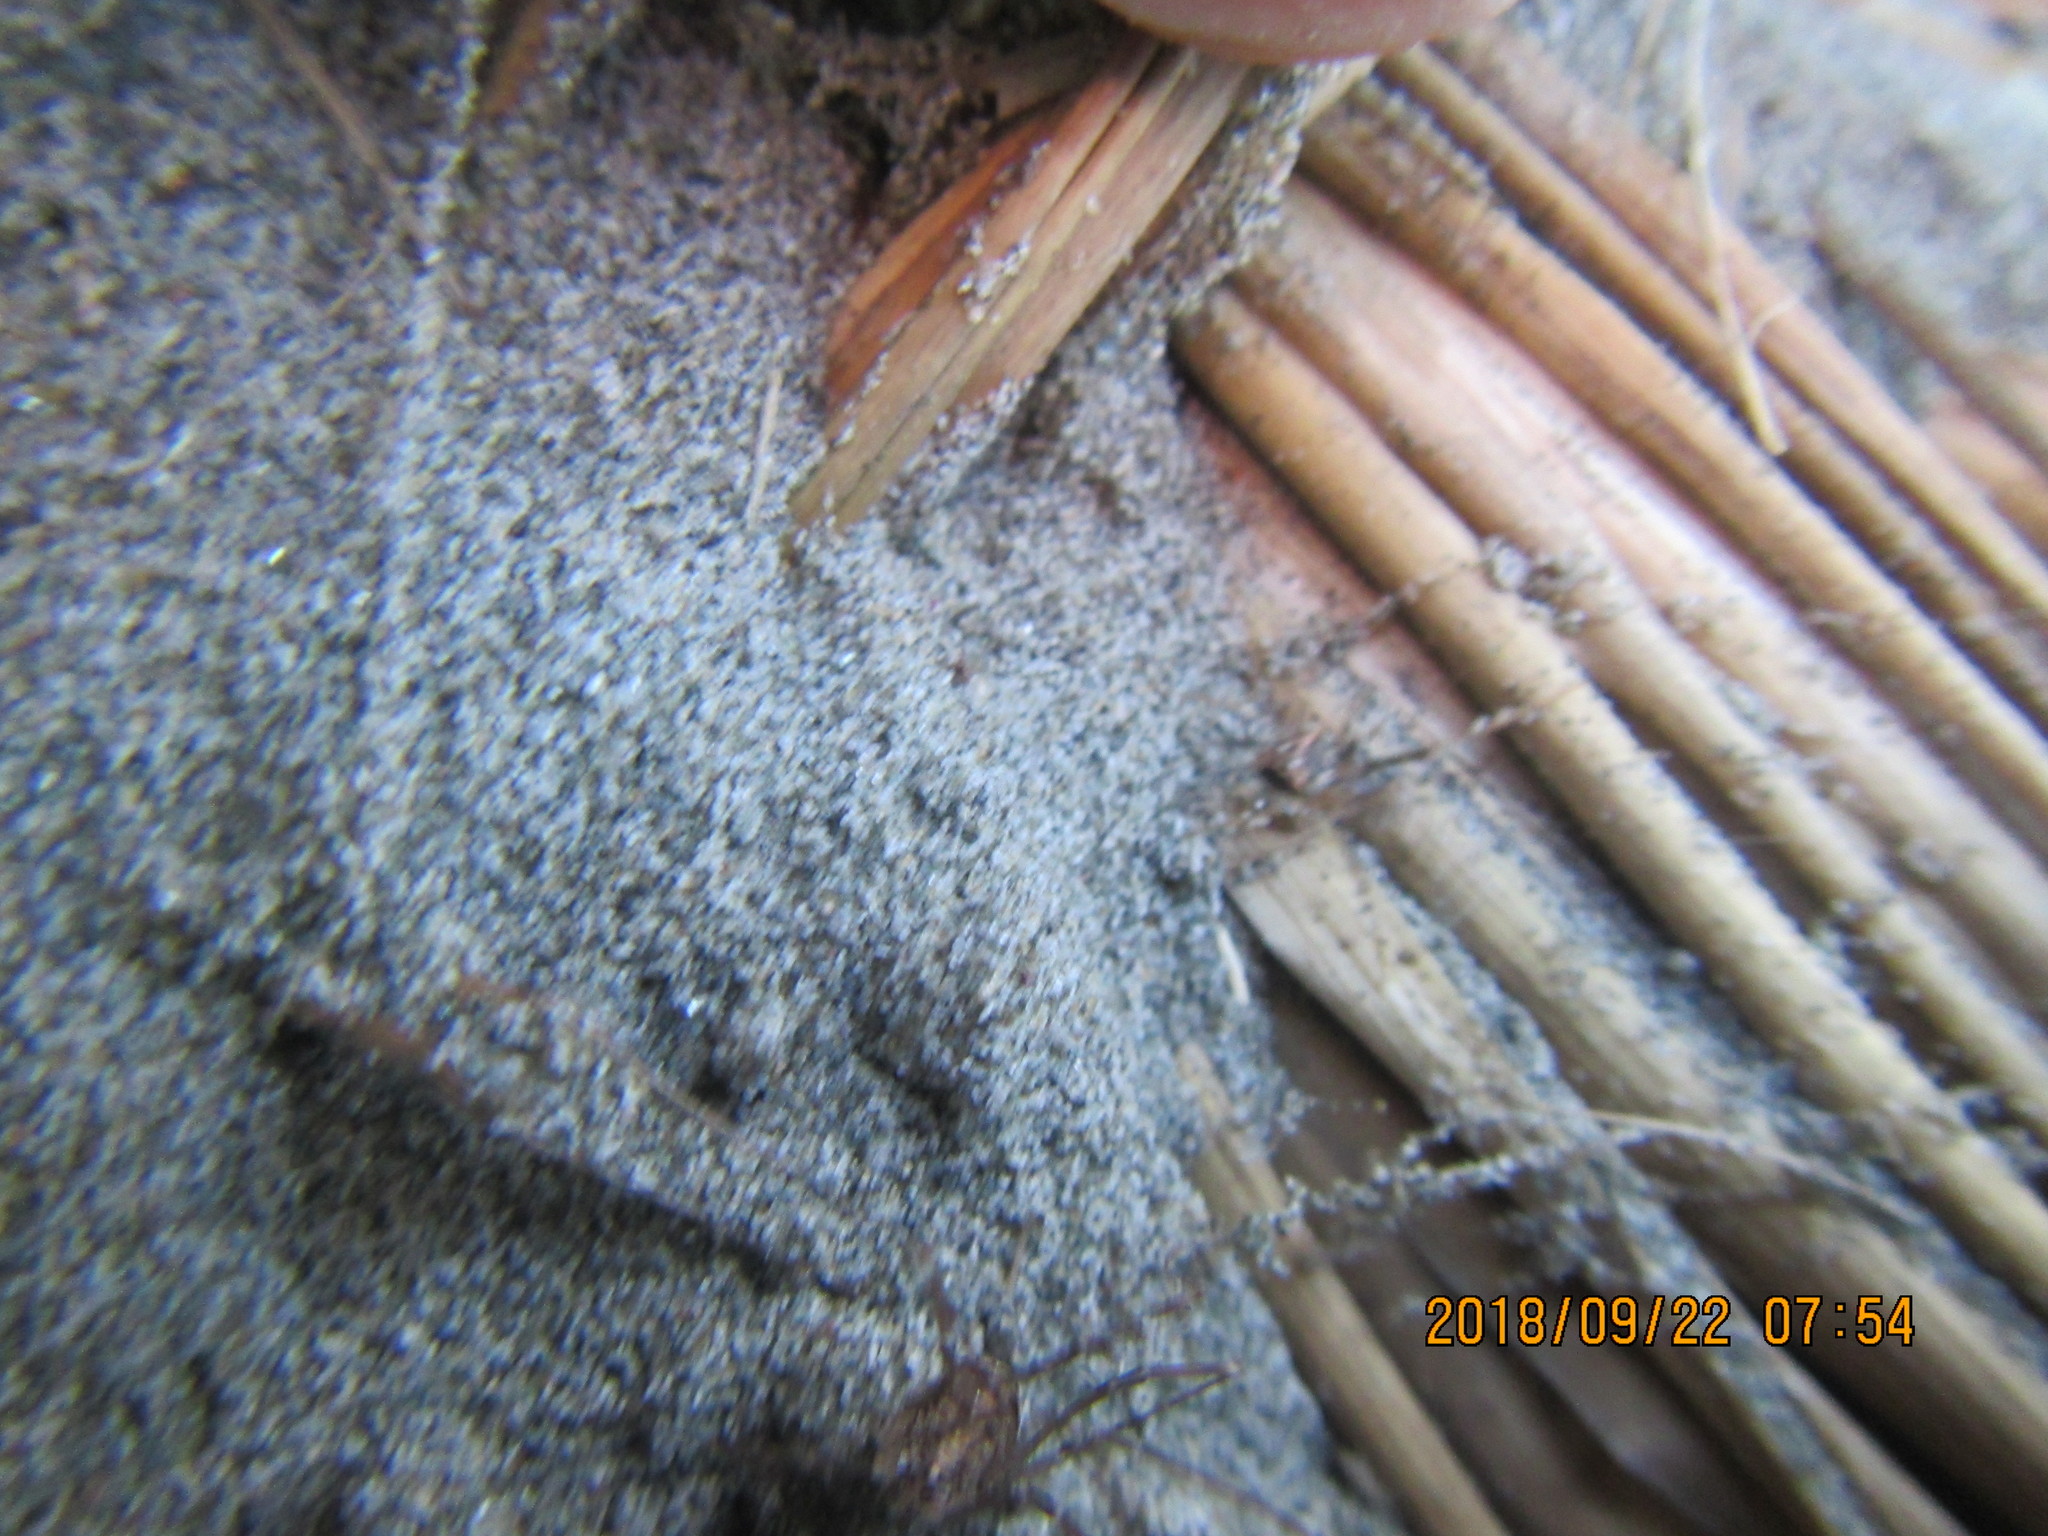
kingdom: Animalia
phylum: Arthropoda
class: Arachnida
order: Araneae
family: Mimetidae
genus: Australomimetus
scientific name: Australomimetus hartleyensis
